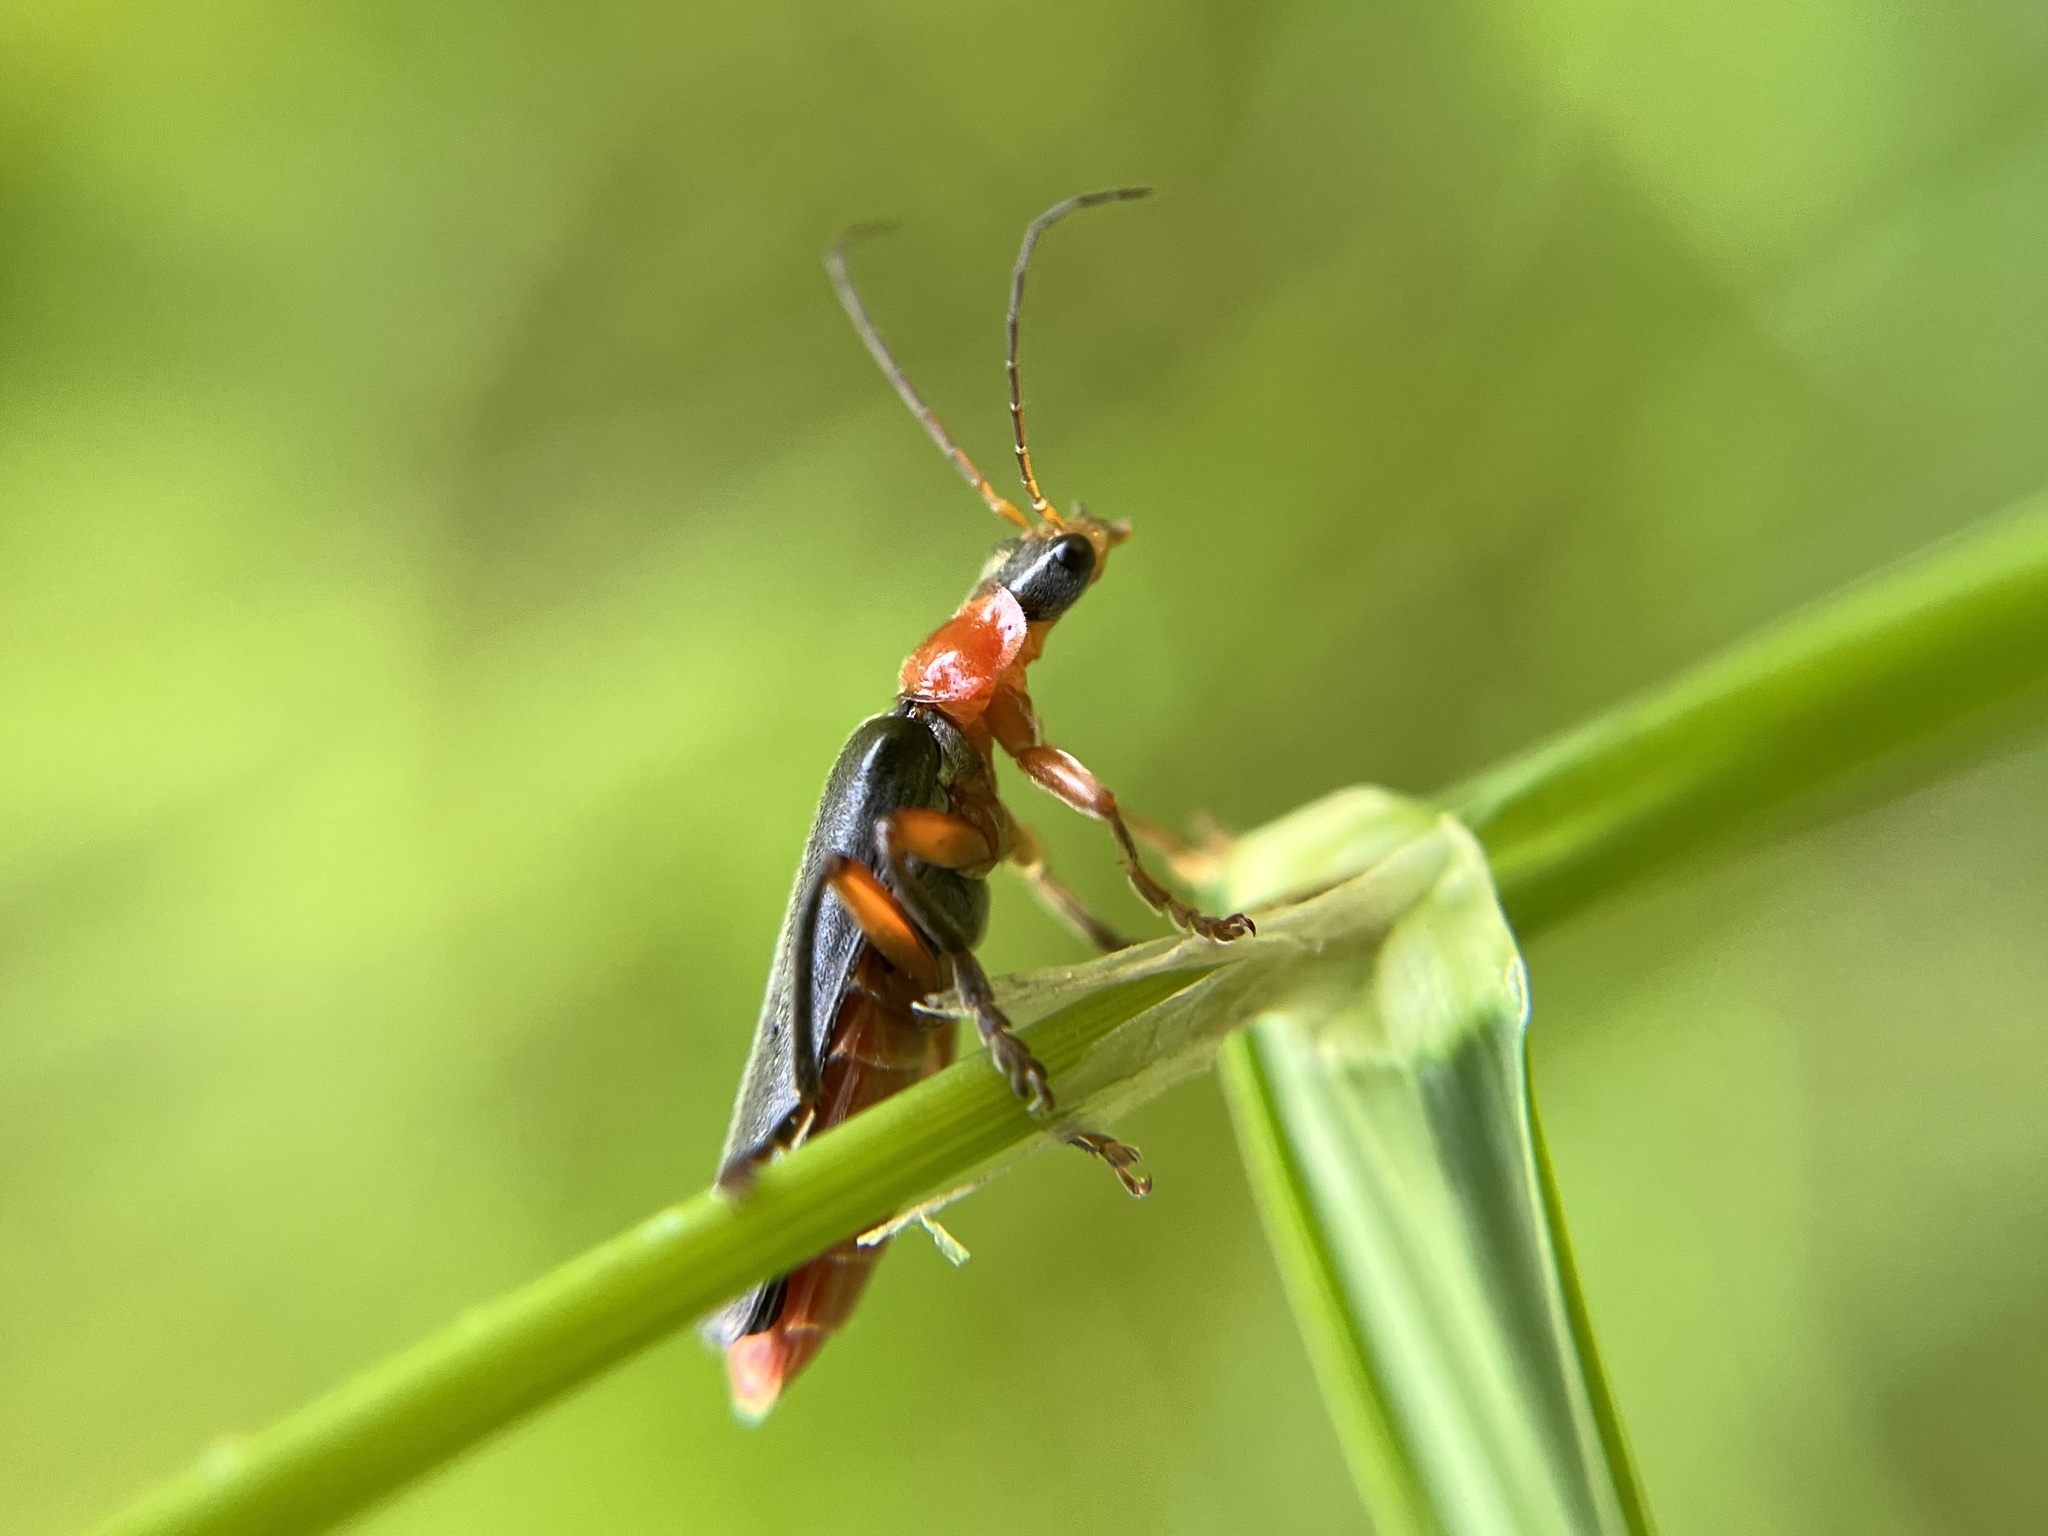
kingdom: Animalia
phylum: Arthropoda
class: Insecta
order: Coleoptera
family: Cantharidae
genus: Cantharis
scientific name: Cantharis pellucida
